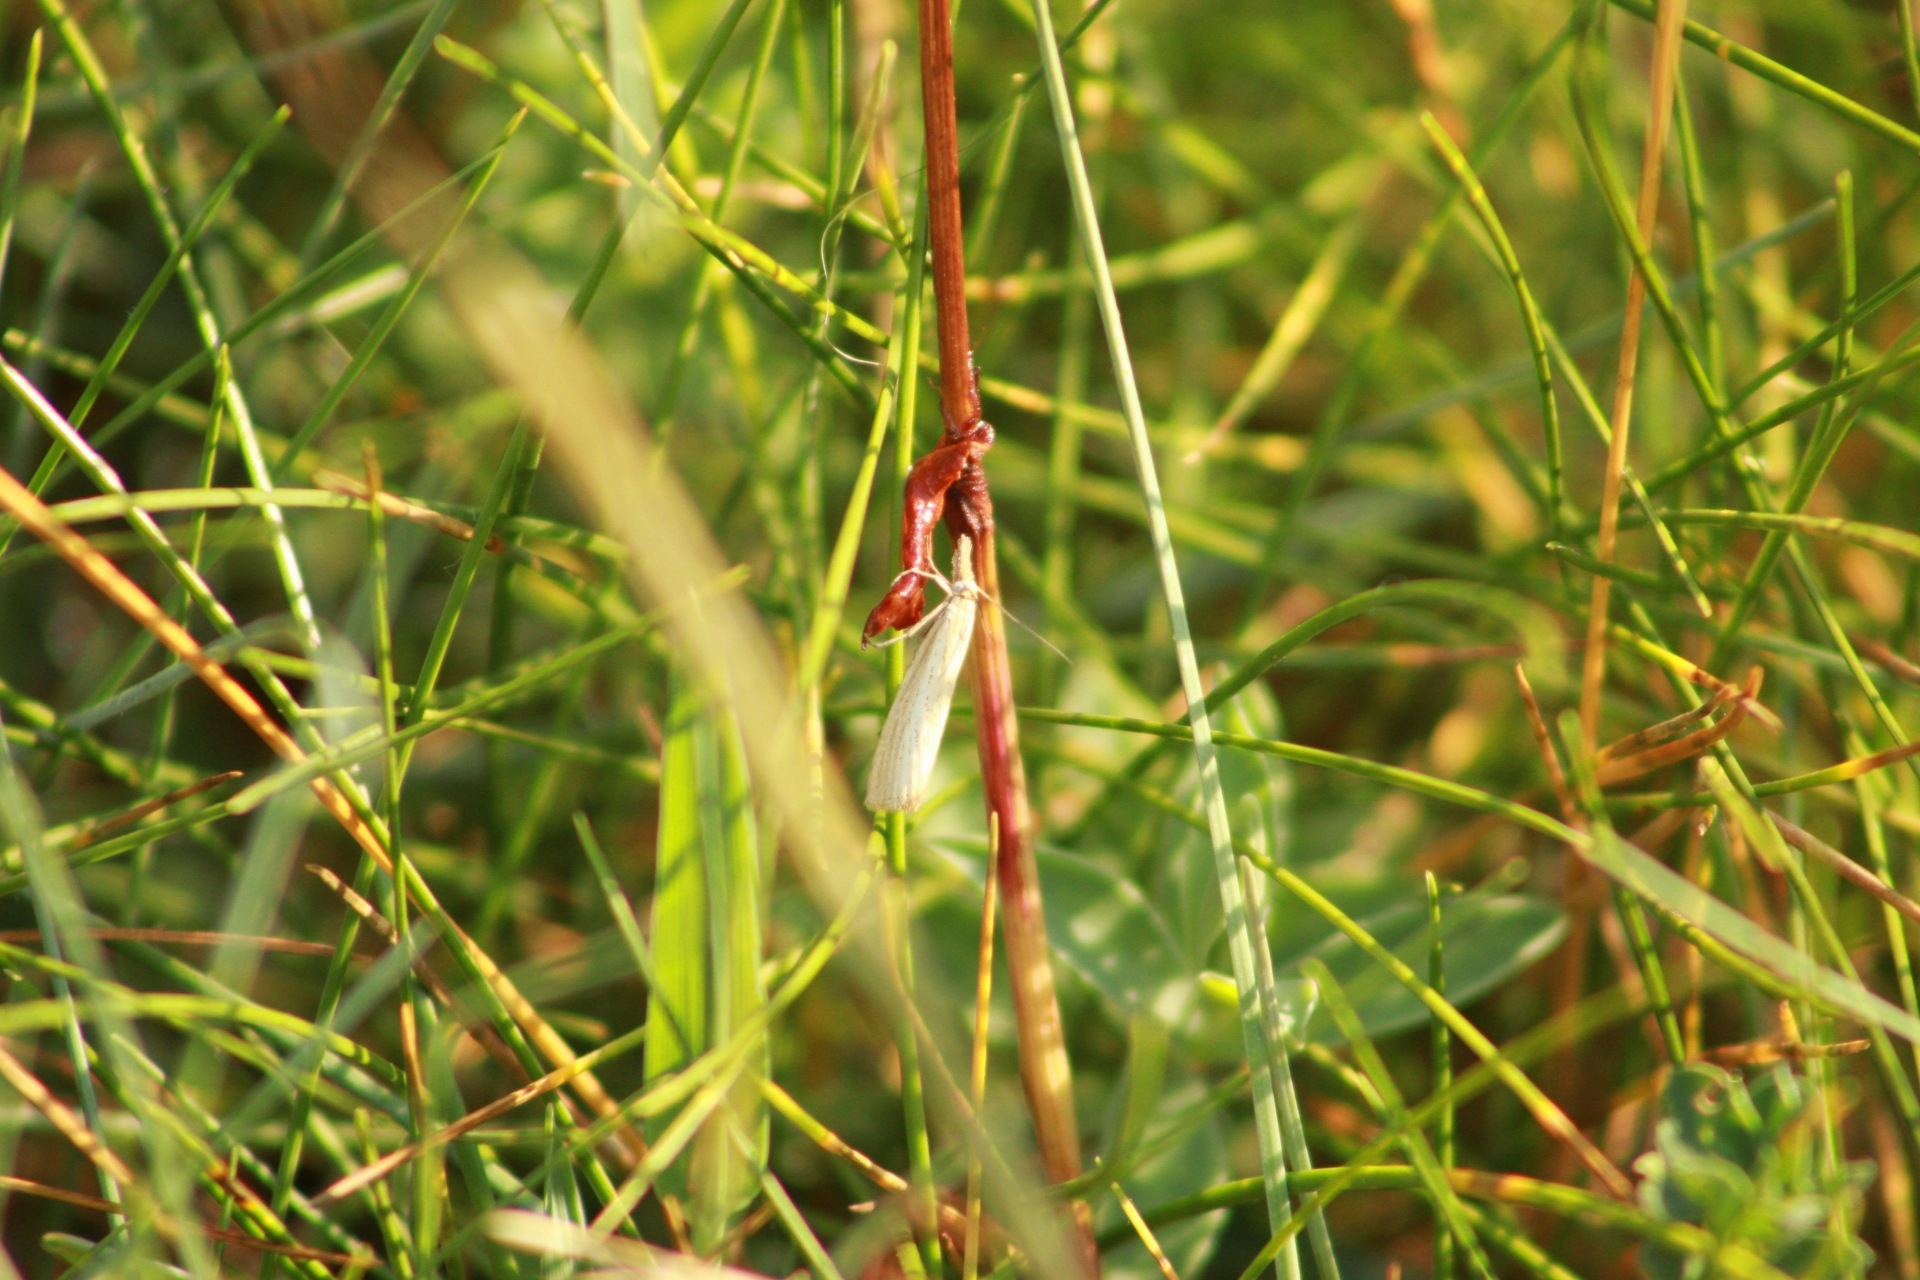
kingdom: Animalia
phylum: Arthropoda
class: Insecta
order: Lepidoptera
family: Crambidae
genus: Agriphila
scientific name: Agriphila straminella
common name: Straw grass-veneer
